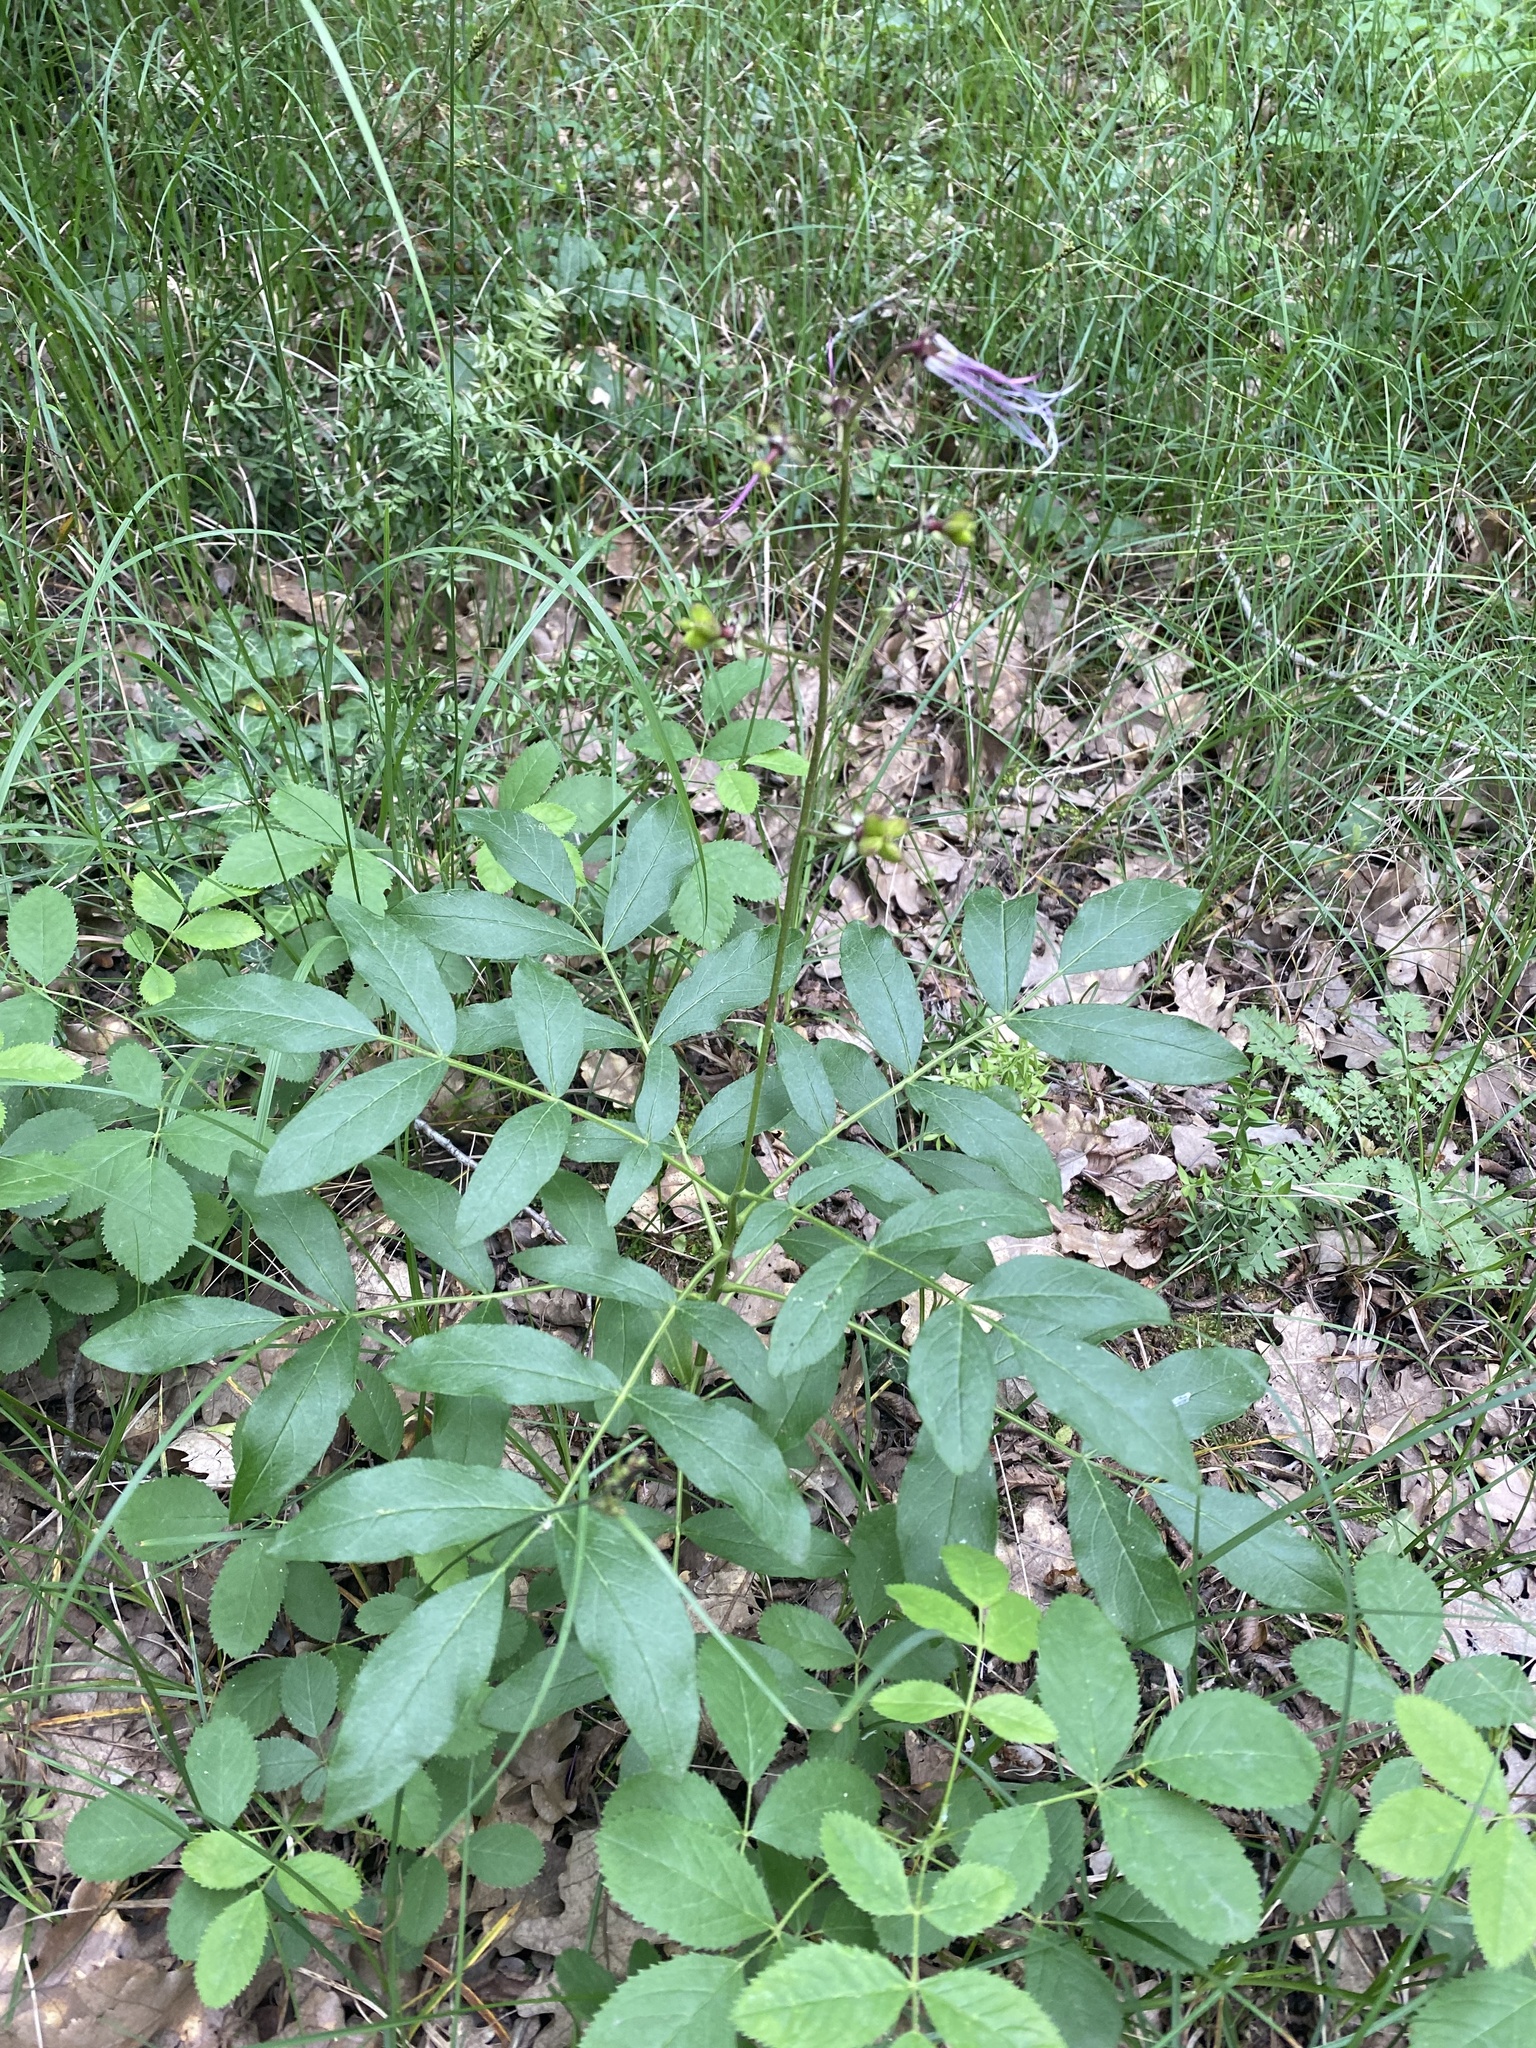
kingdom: Plantae
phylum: Tracheophyta
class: Magnoliopsida
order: Sapindales
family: Rutaceae
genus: Dictamnus
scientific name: Dictamnus albus
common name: Gasplant
